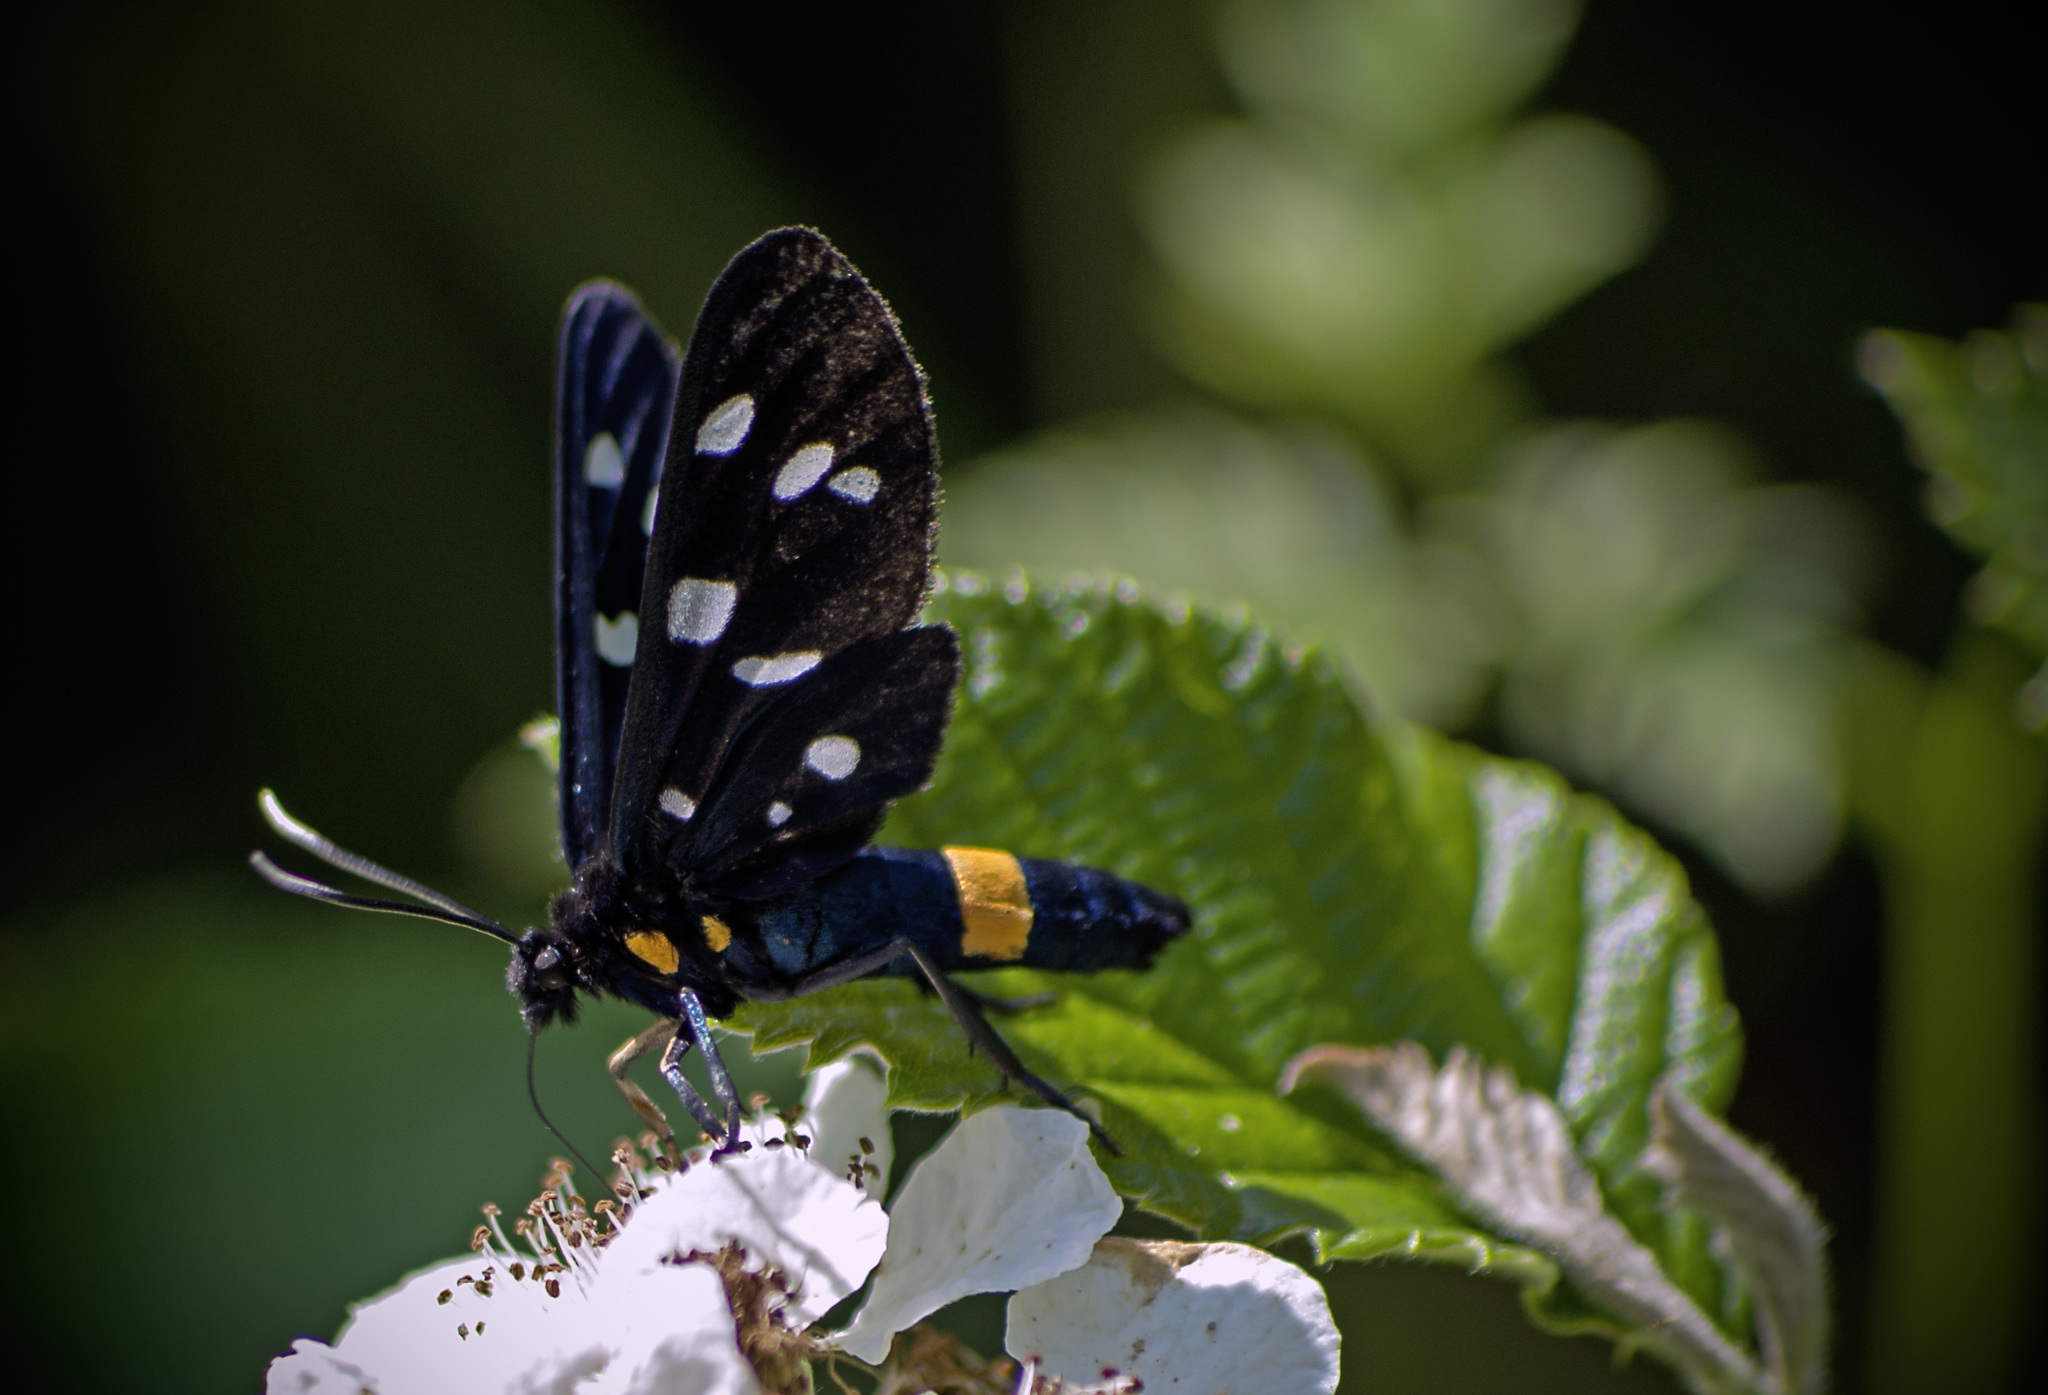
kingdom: Animalia
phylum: Arthropoda
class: Insecta
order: Lepidoptera
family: Erebidae
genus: Amata
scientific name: Amata phegea
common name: Nine-spotted
